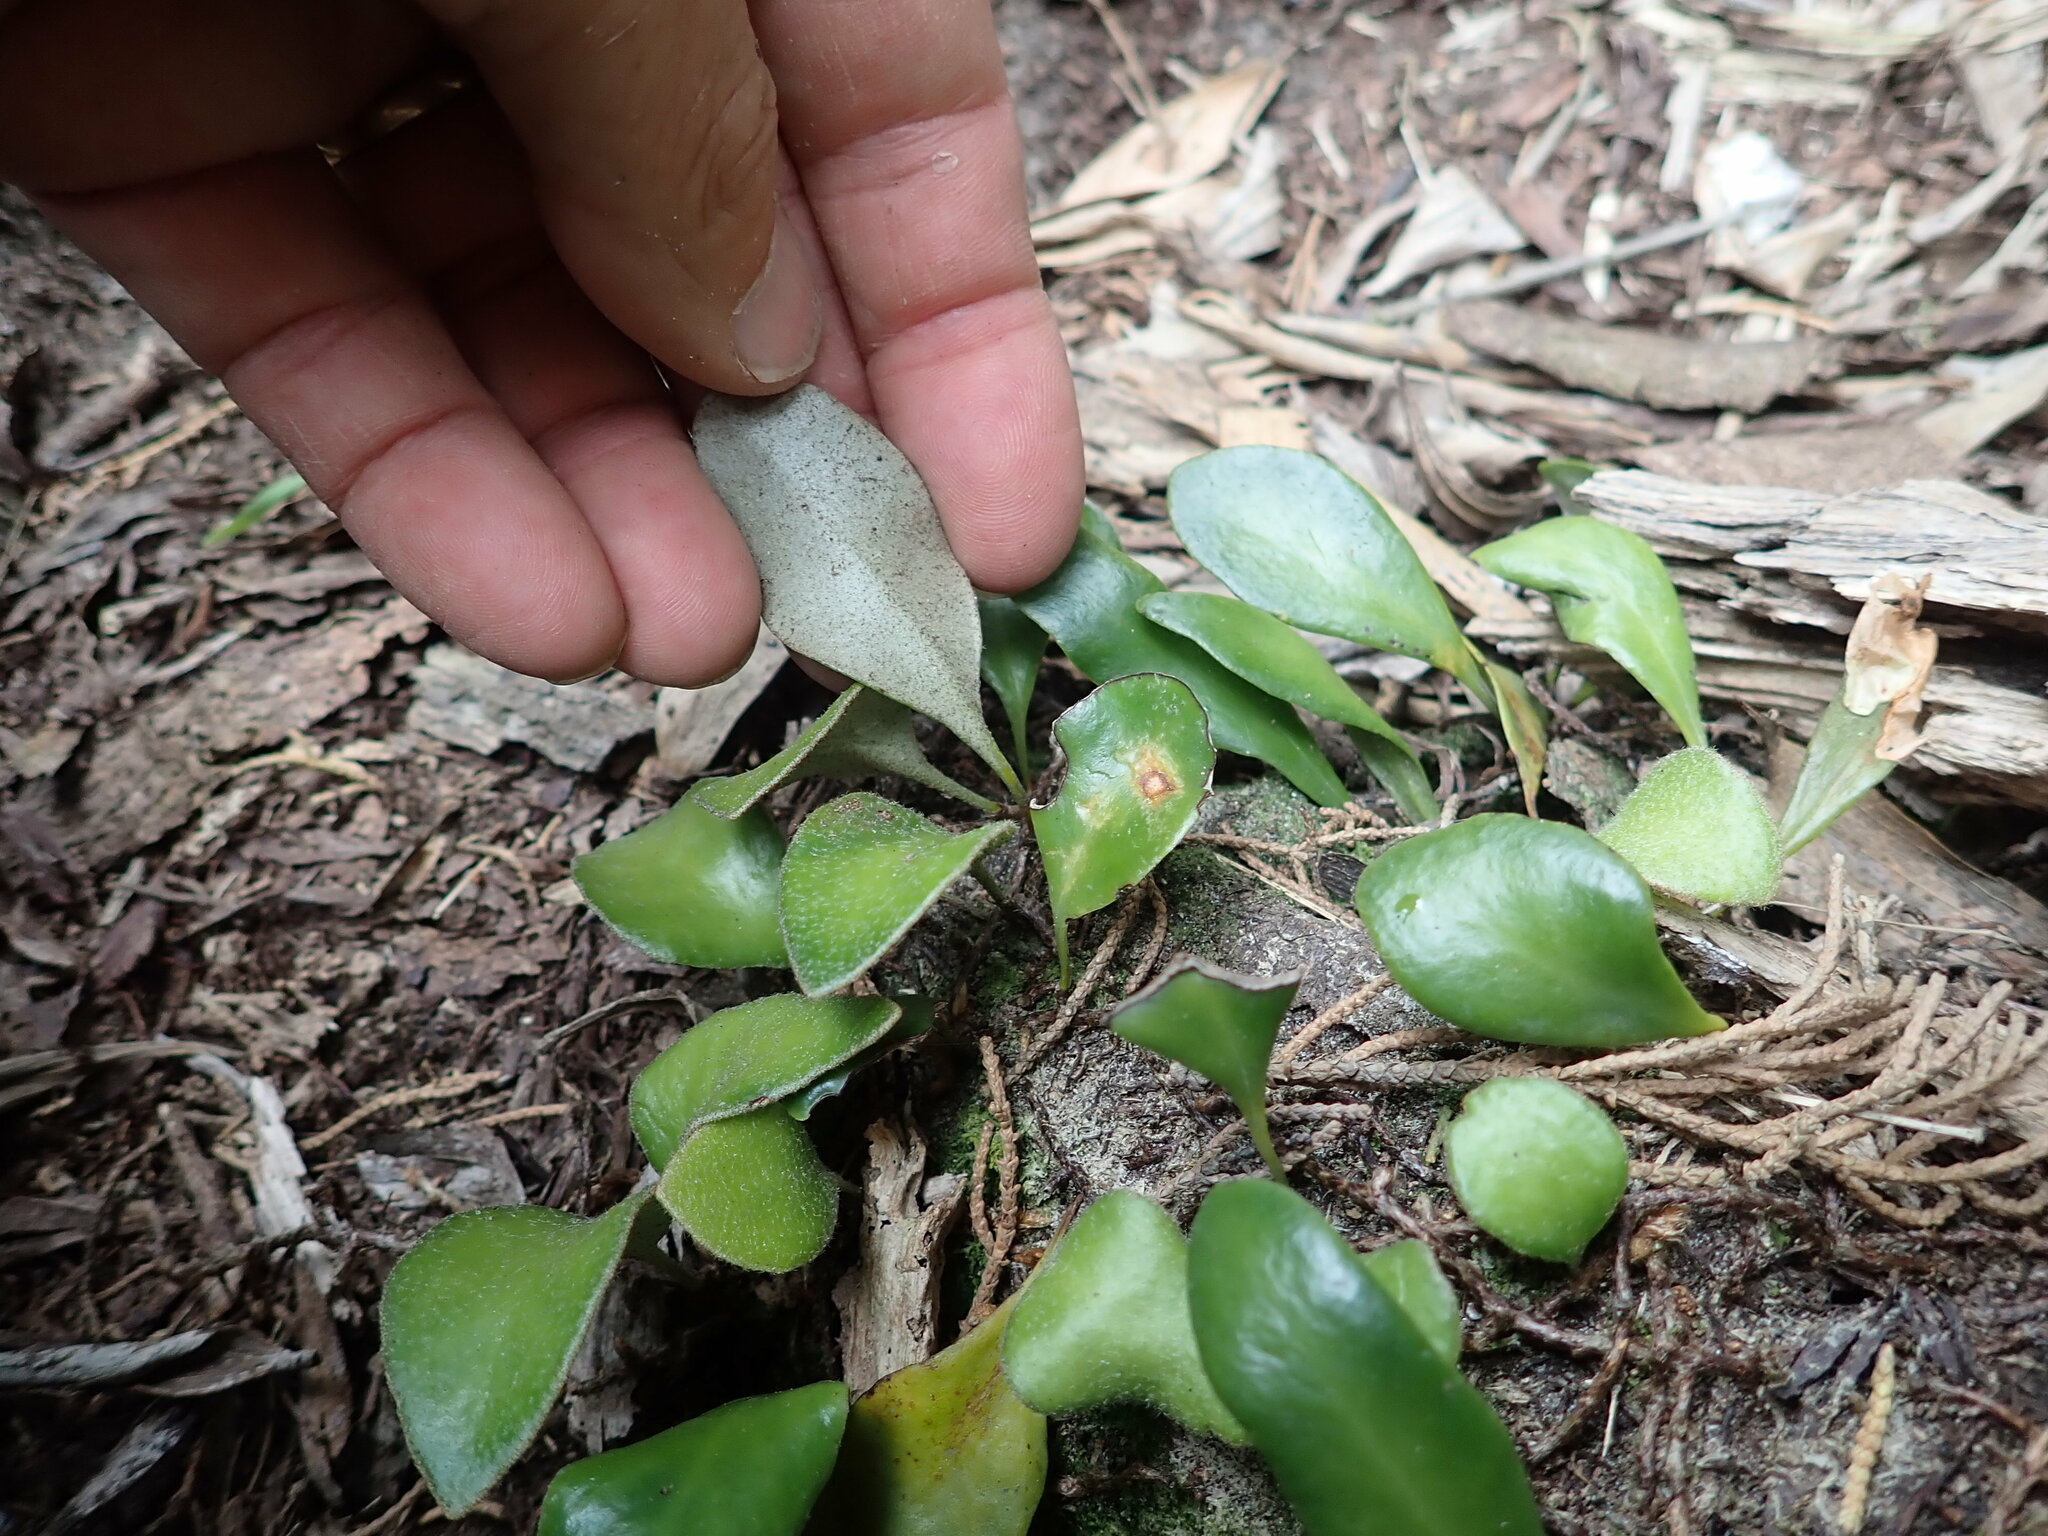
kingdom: Plantae
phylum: Tracheophyta
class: Polypodiopsida
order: Polypodiales
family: Polypodiaceae
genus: Pyrrosia
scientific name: Pyrrosia eleagnifolia
